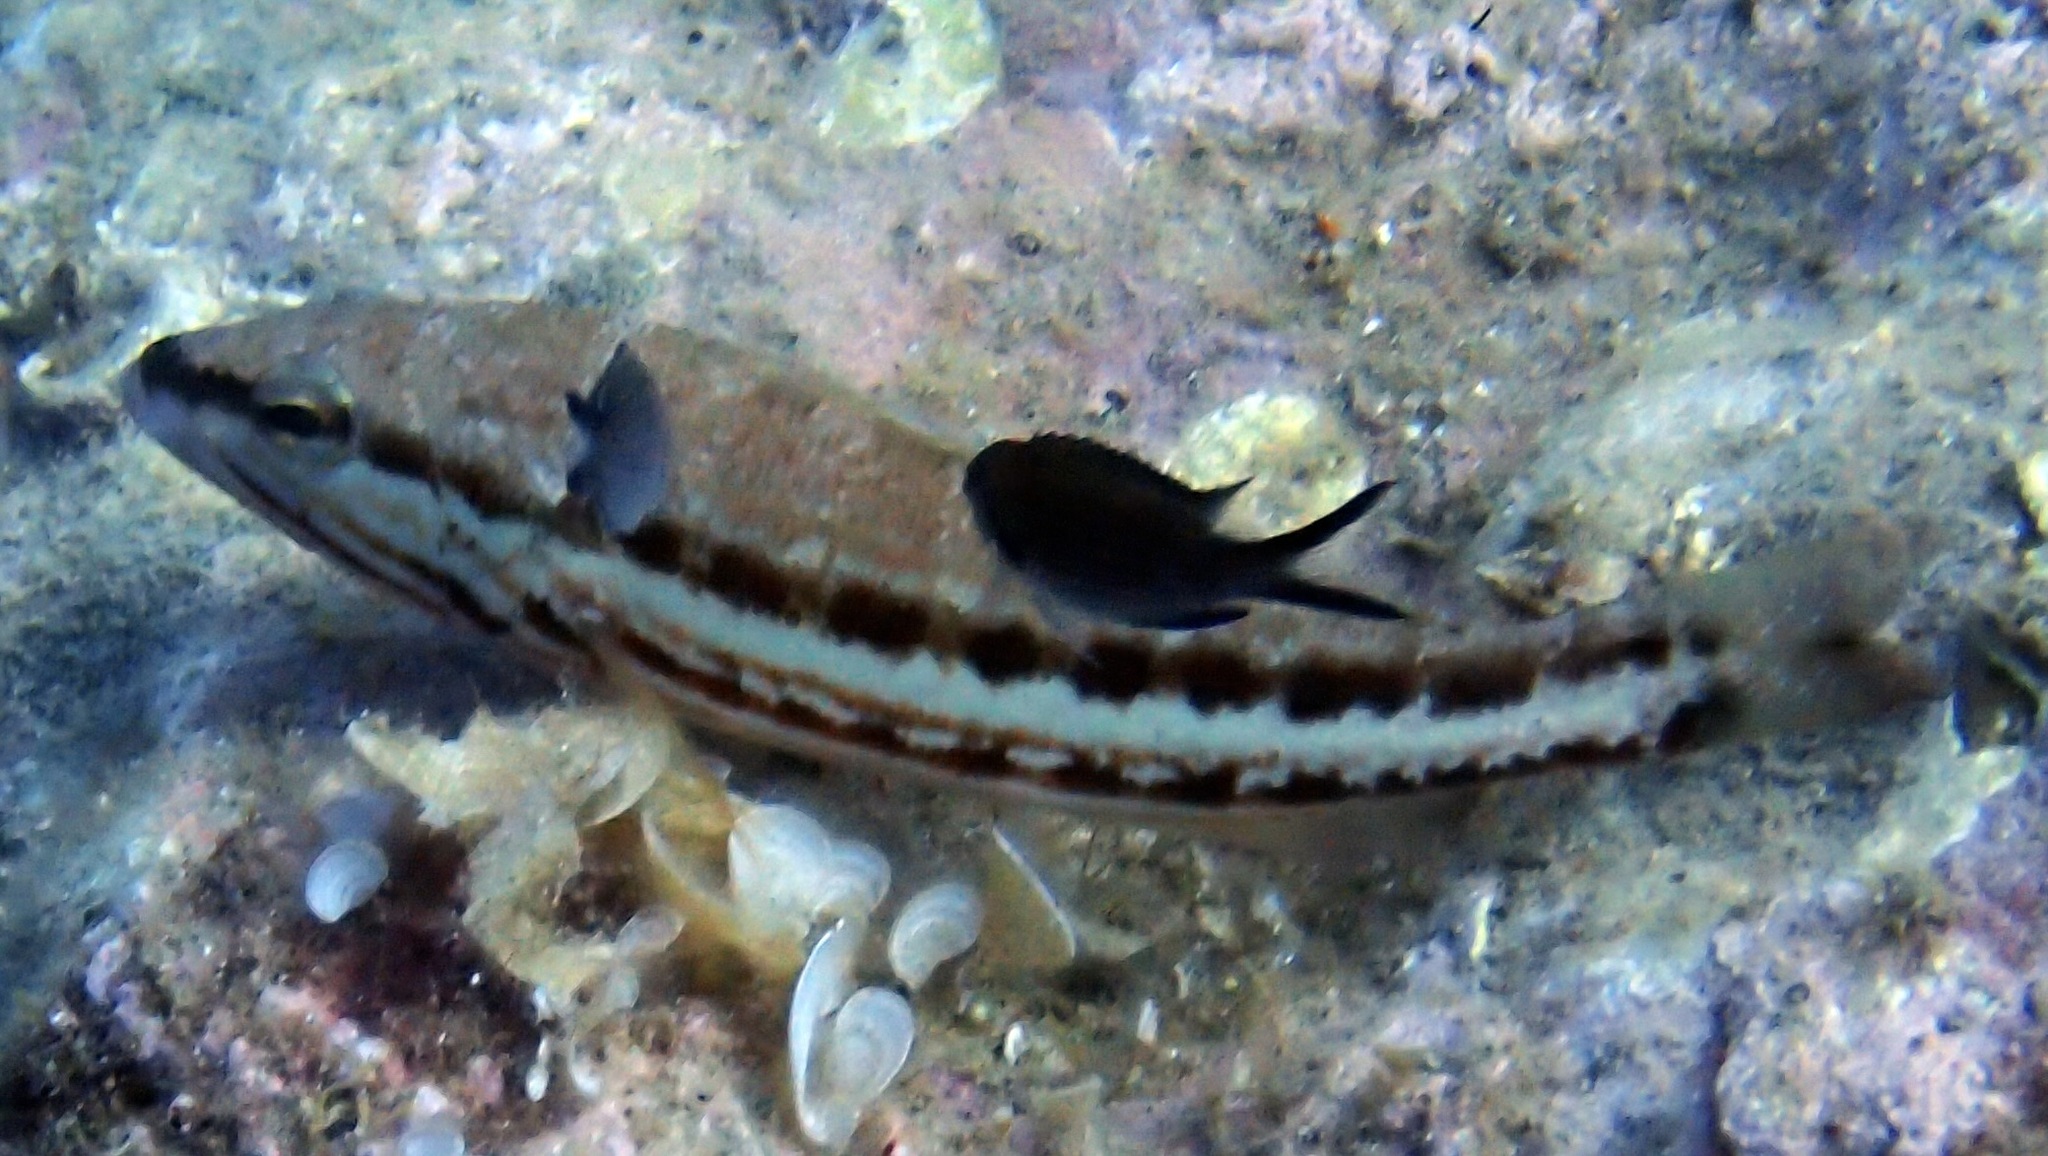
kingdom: Animalia
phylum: Chordata
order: Perciformes
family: Serranidae
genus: Serranus
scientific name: Serranus cabrilla
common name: Comber
